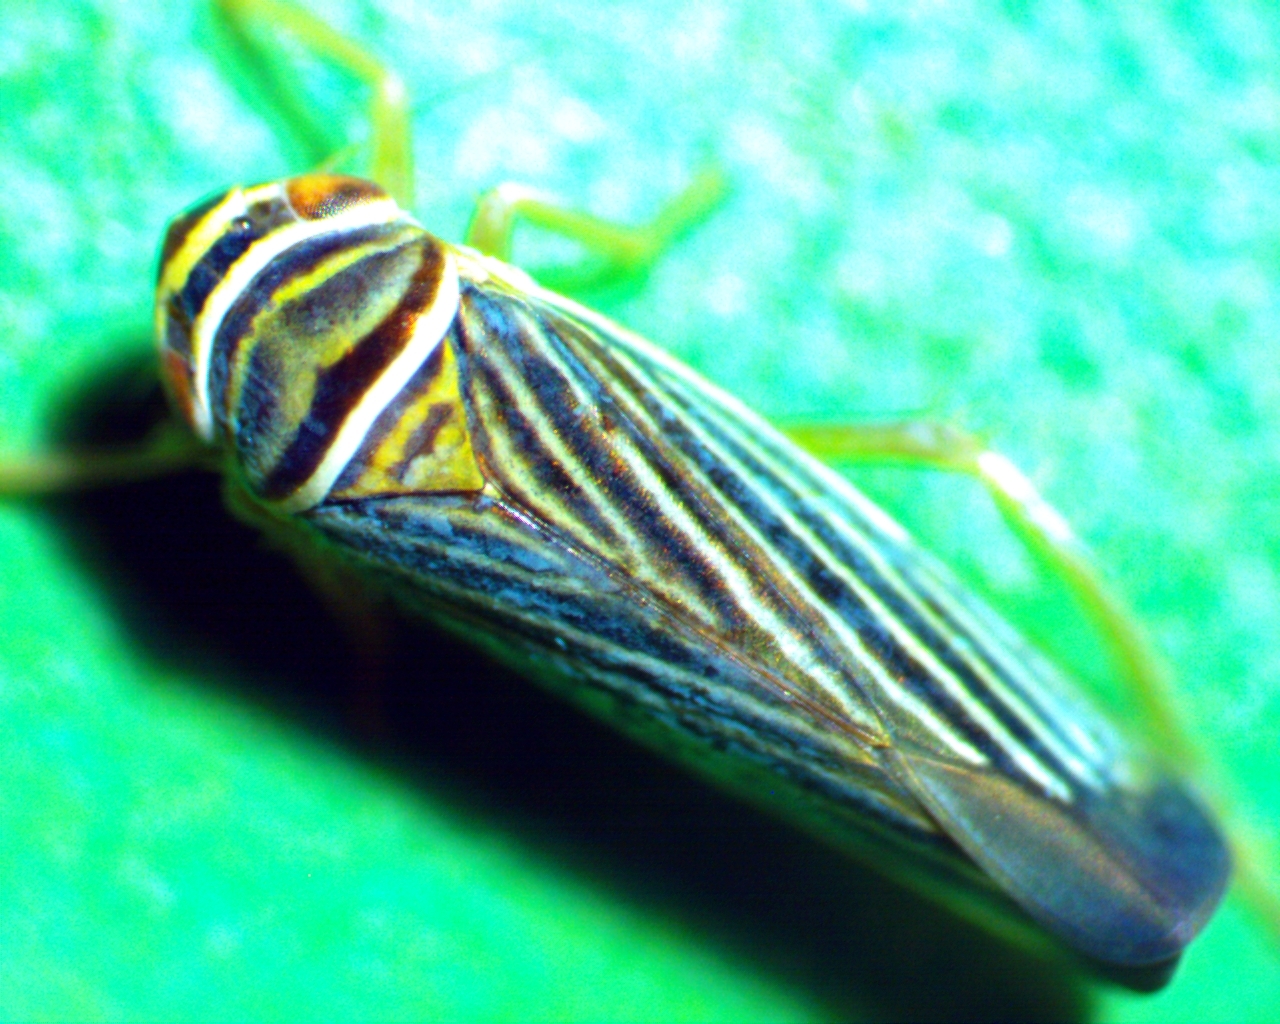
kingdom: Animalia
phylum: Arthropoda
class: Insecta
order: Hemiptera
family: Cicadellidae
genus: Tylozygus
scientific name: Tylozygus bifidus
